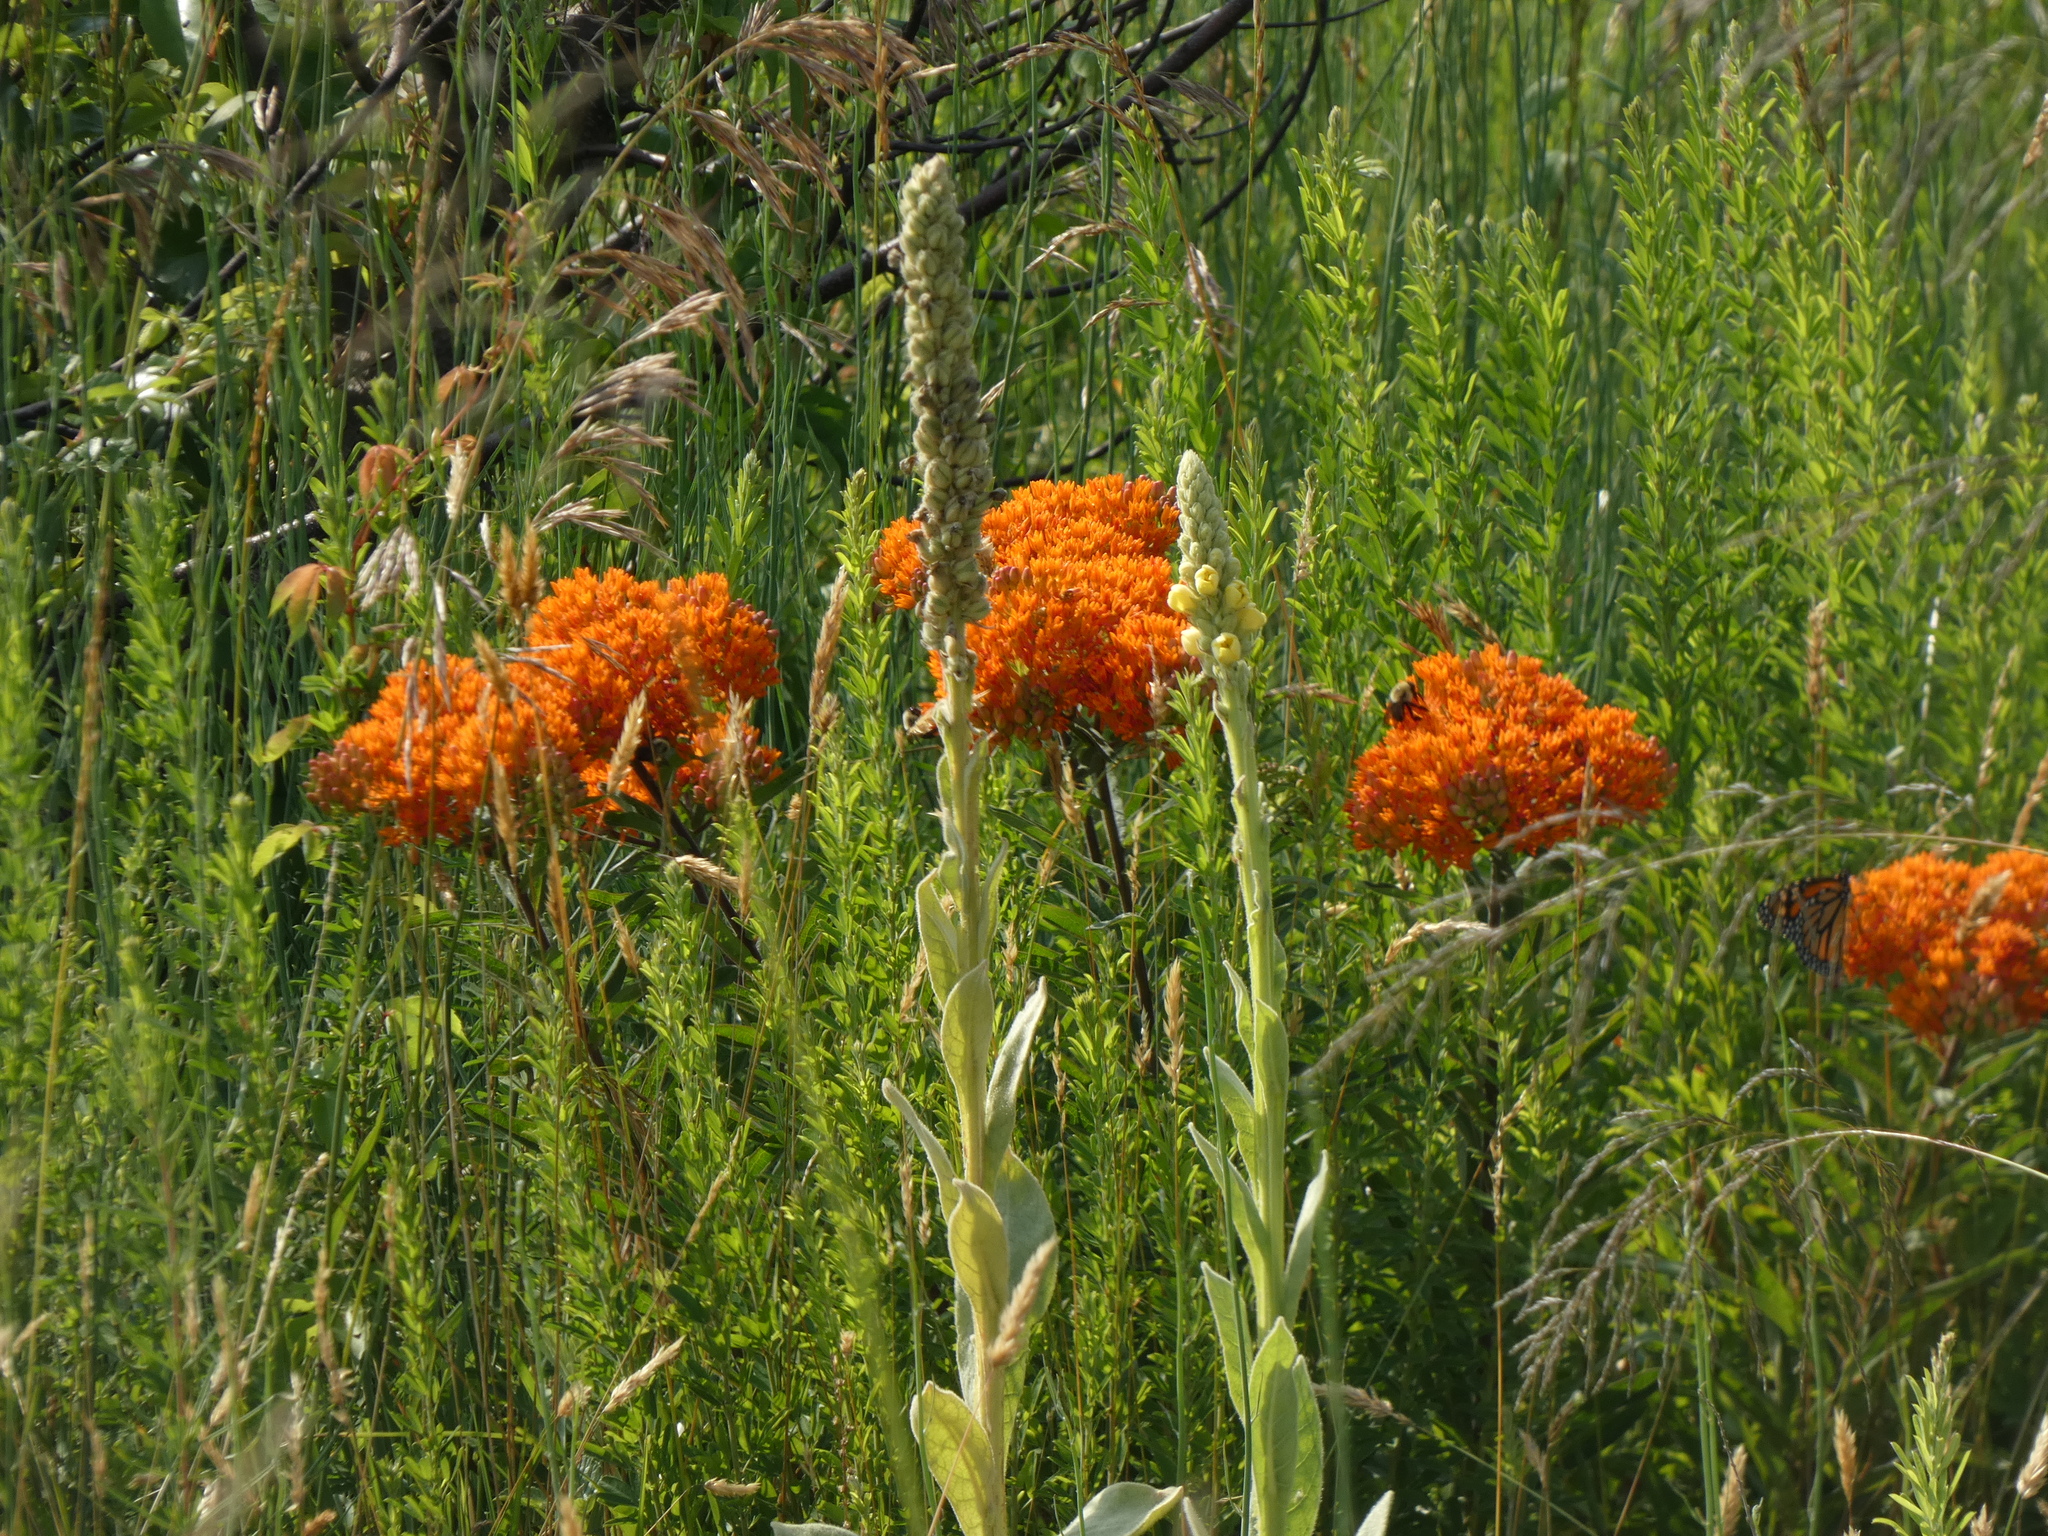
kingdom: Plantae
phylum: Tracheophyta
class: Magnoliopsida
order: Gentianales
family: Apocynaceae
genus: Asclepias
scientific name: Asclepias tuberosa
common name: Butterfly milkweed
